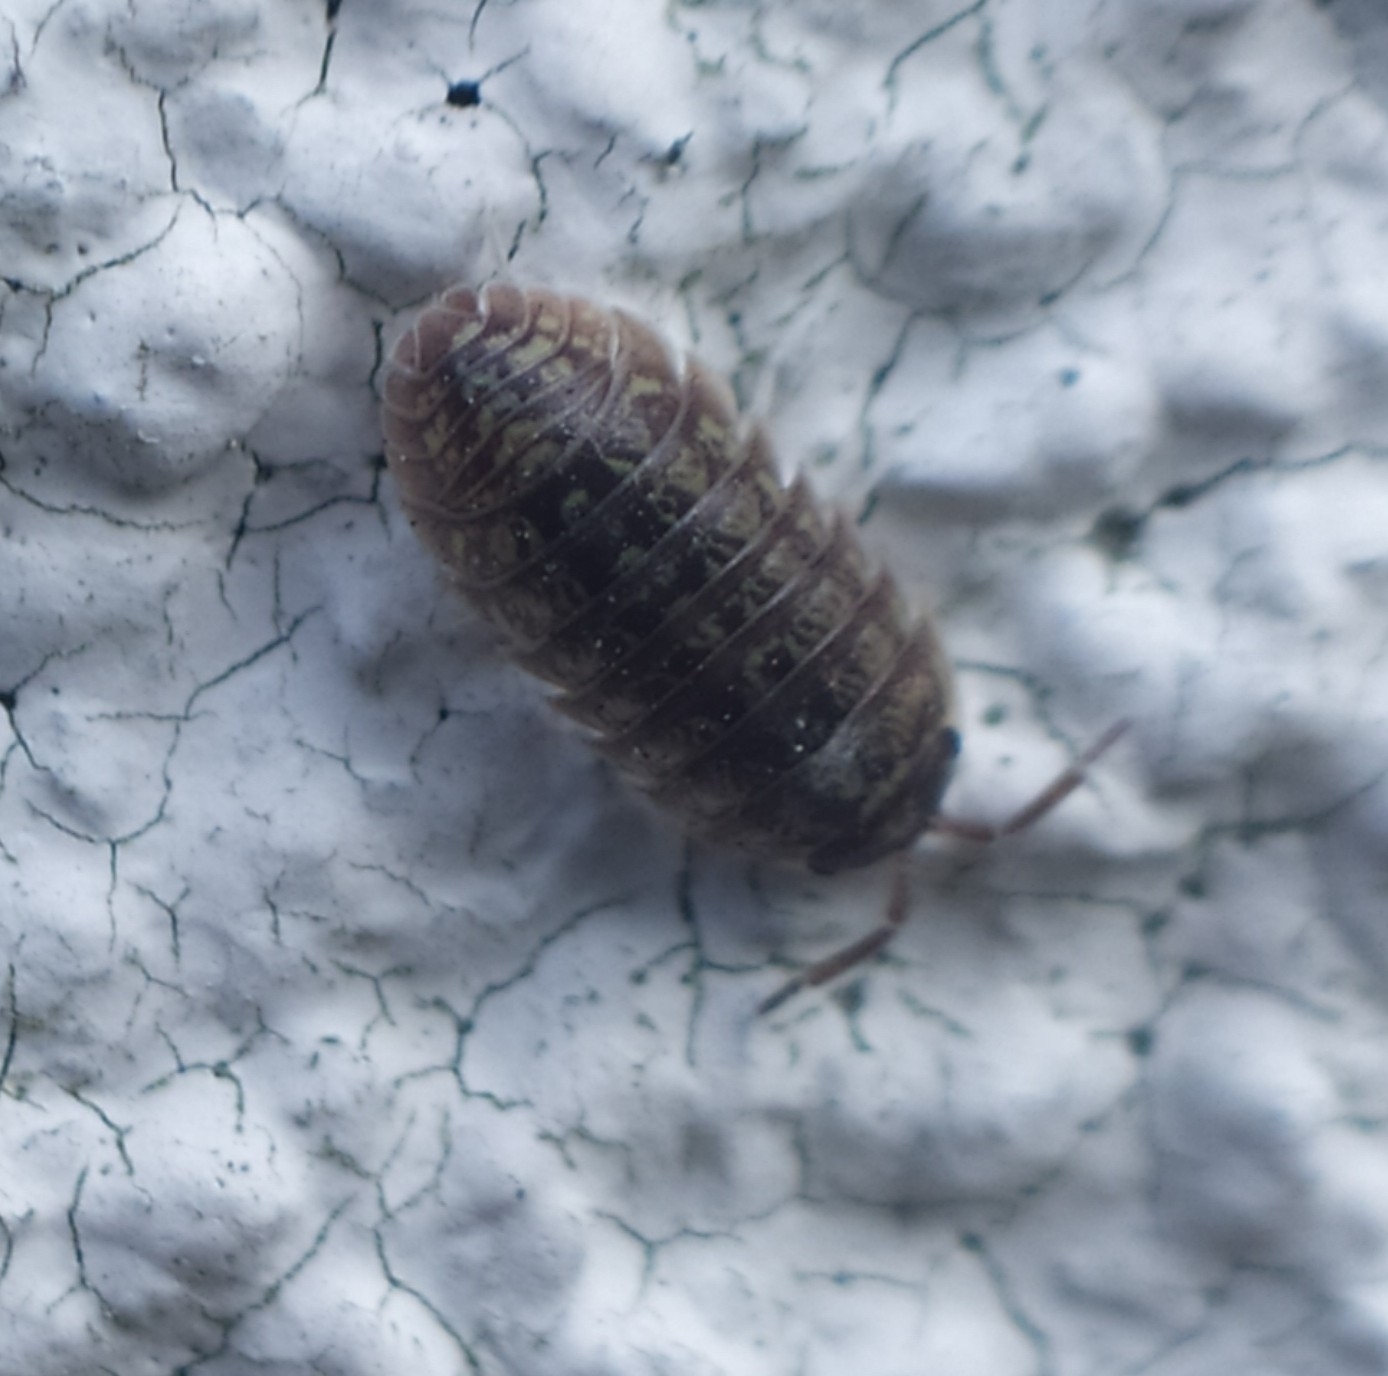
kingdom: Animalia
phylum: Arthropoda
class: Malacostraca
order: Isopoda
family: Armadillidiidae
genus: Armadillidium
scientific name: Armadillidium versicolor
